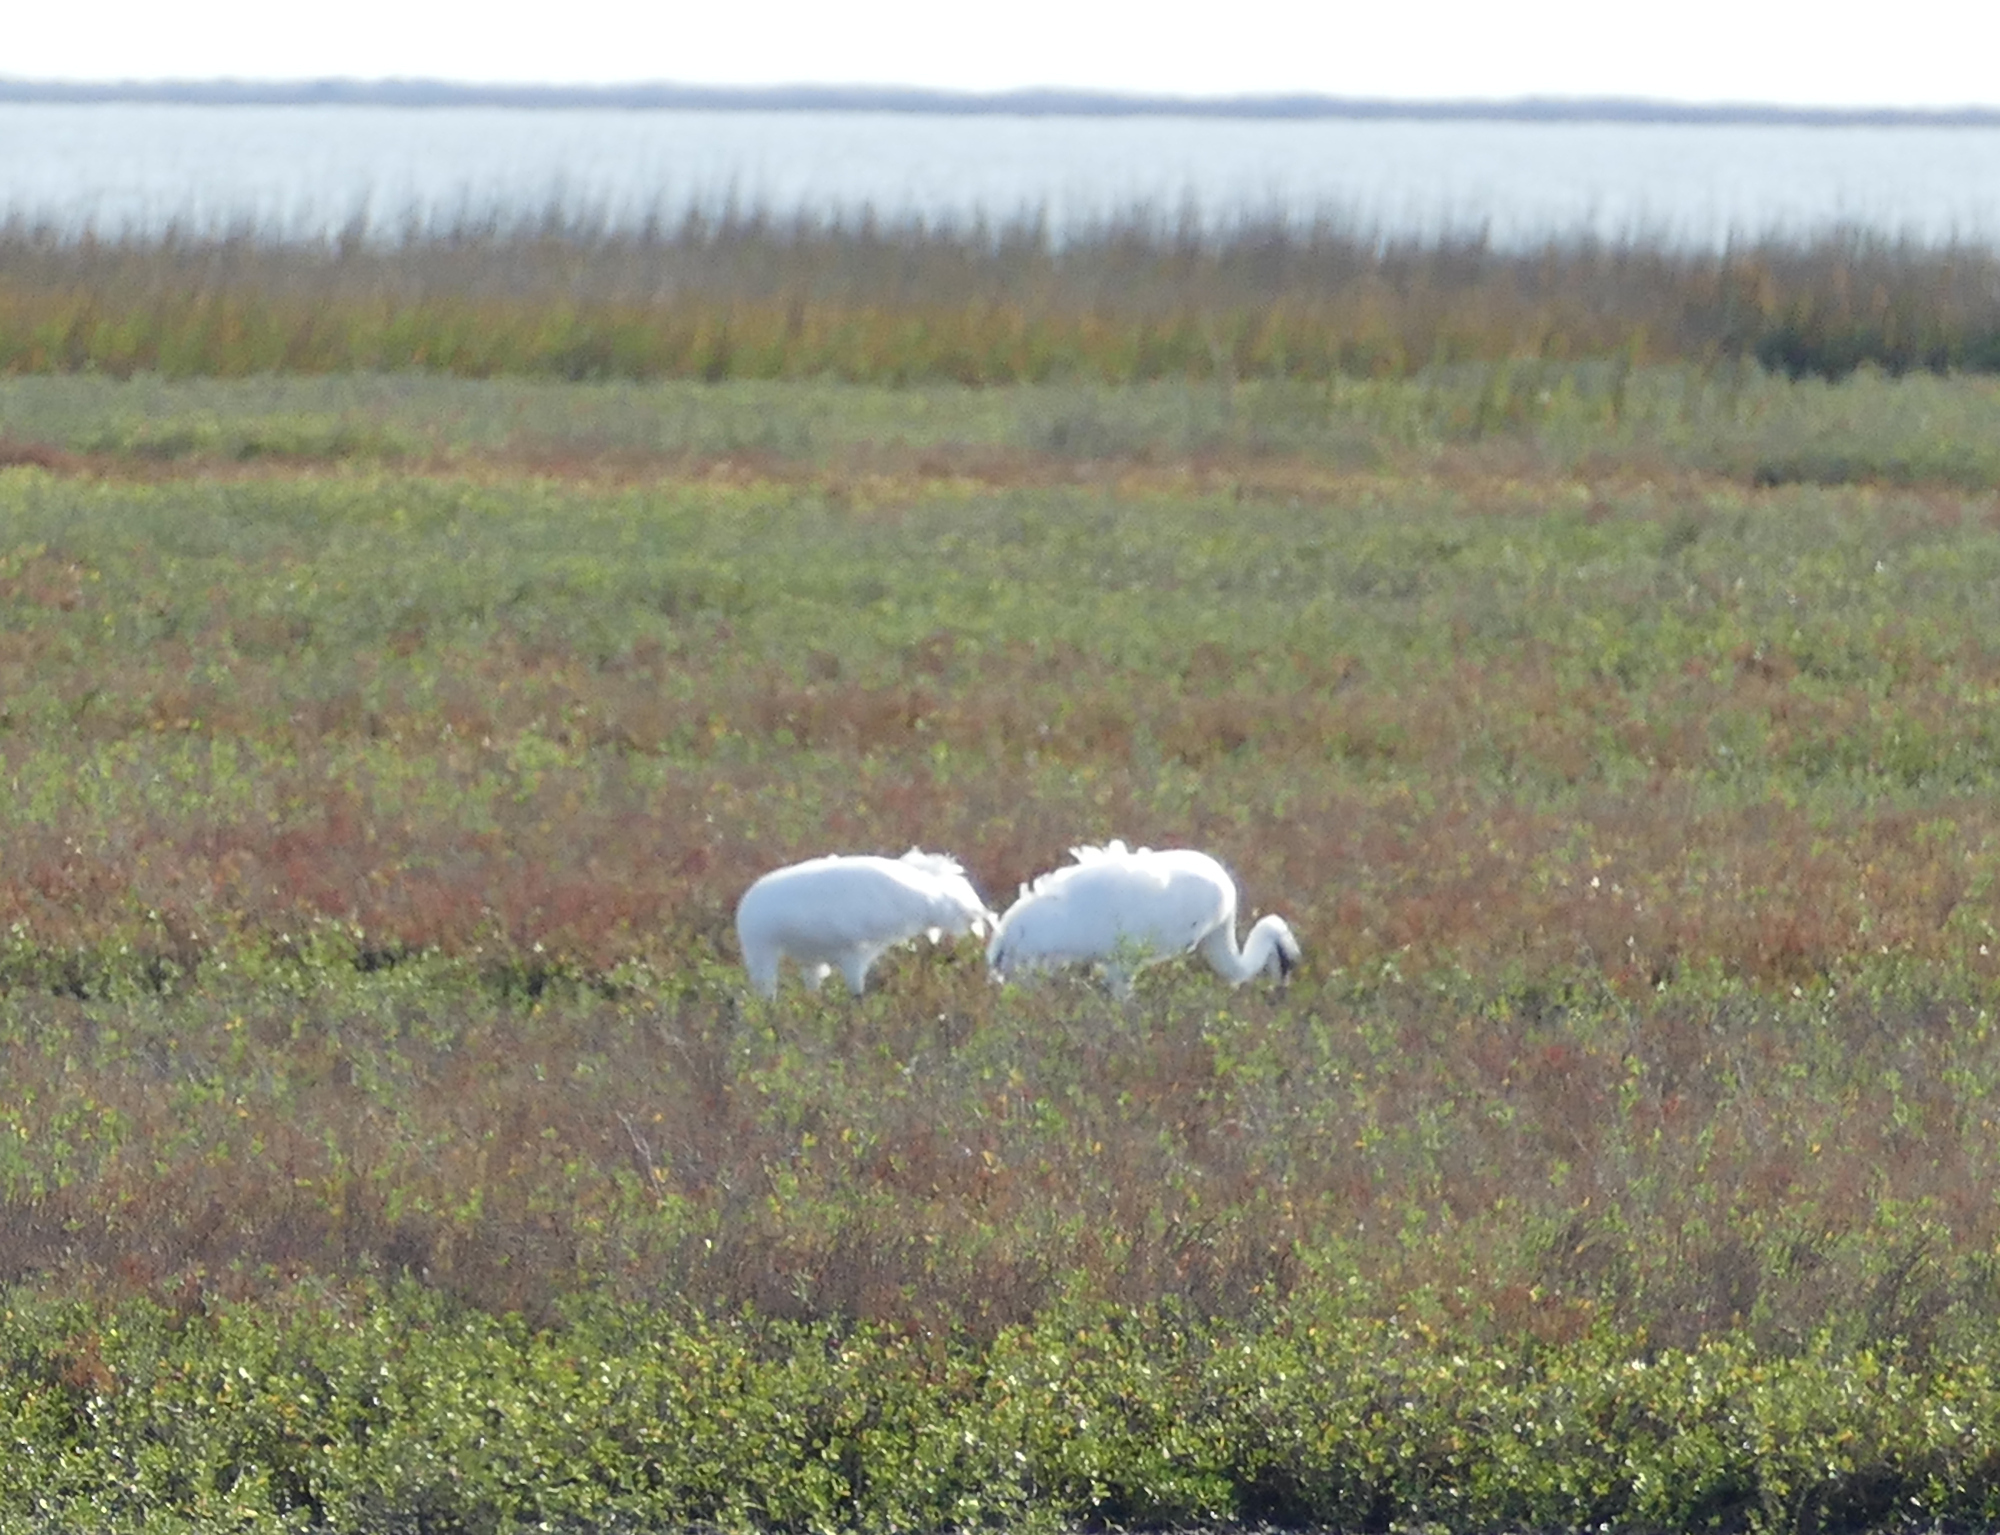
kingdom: Animalia
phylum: Chordata
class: Aves
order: Gruiformes
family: Gruidae
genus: Grus
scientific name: Grus americana
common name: Whooping crane
